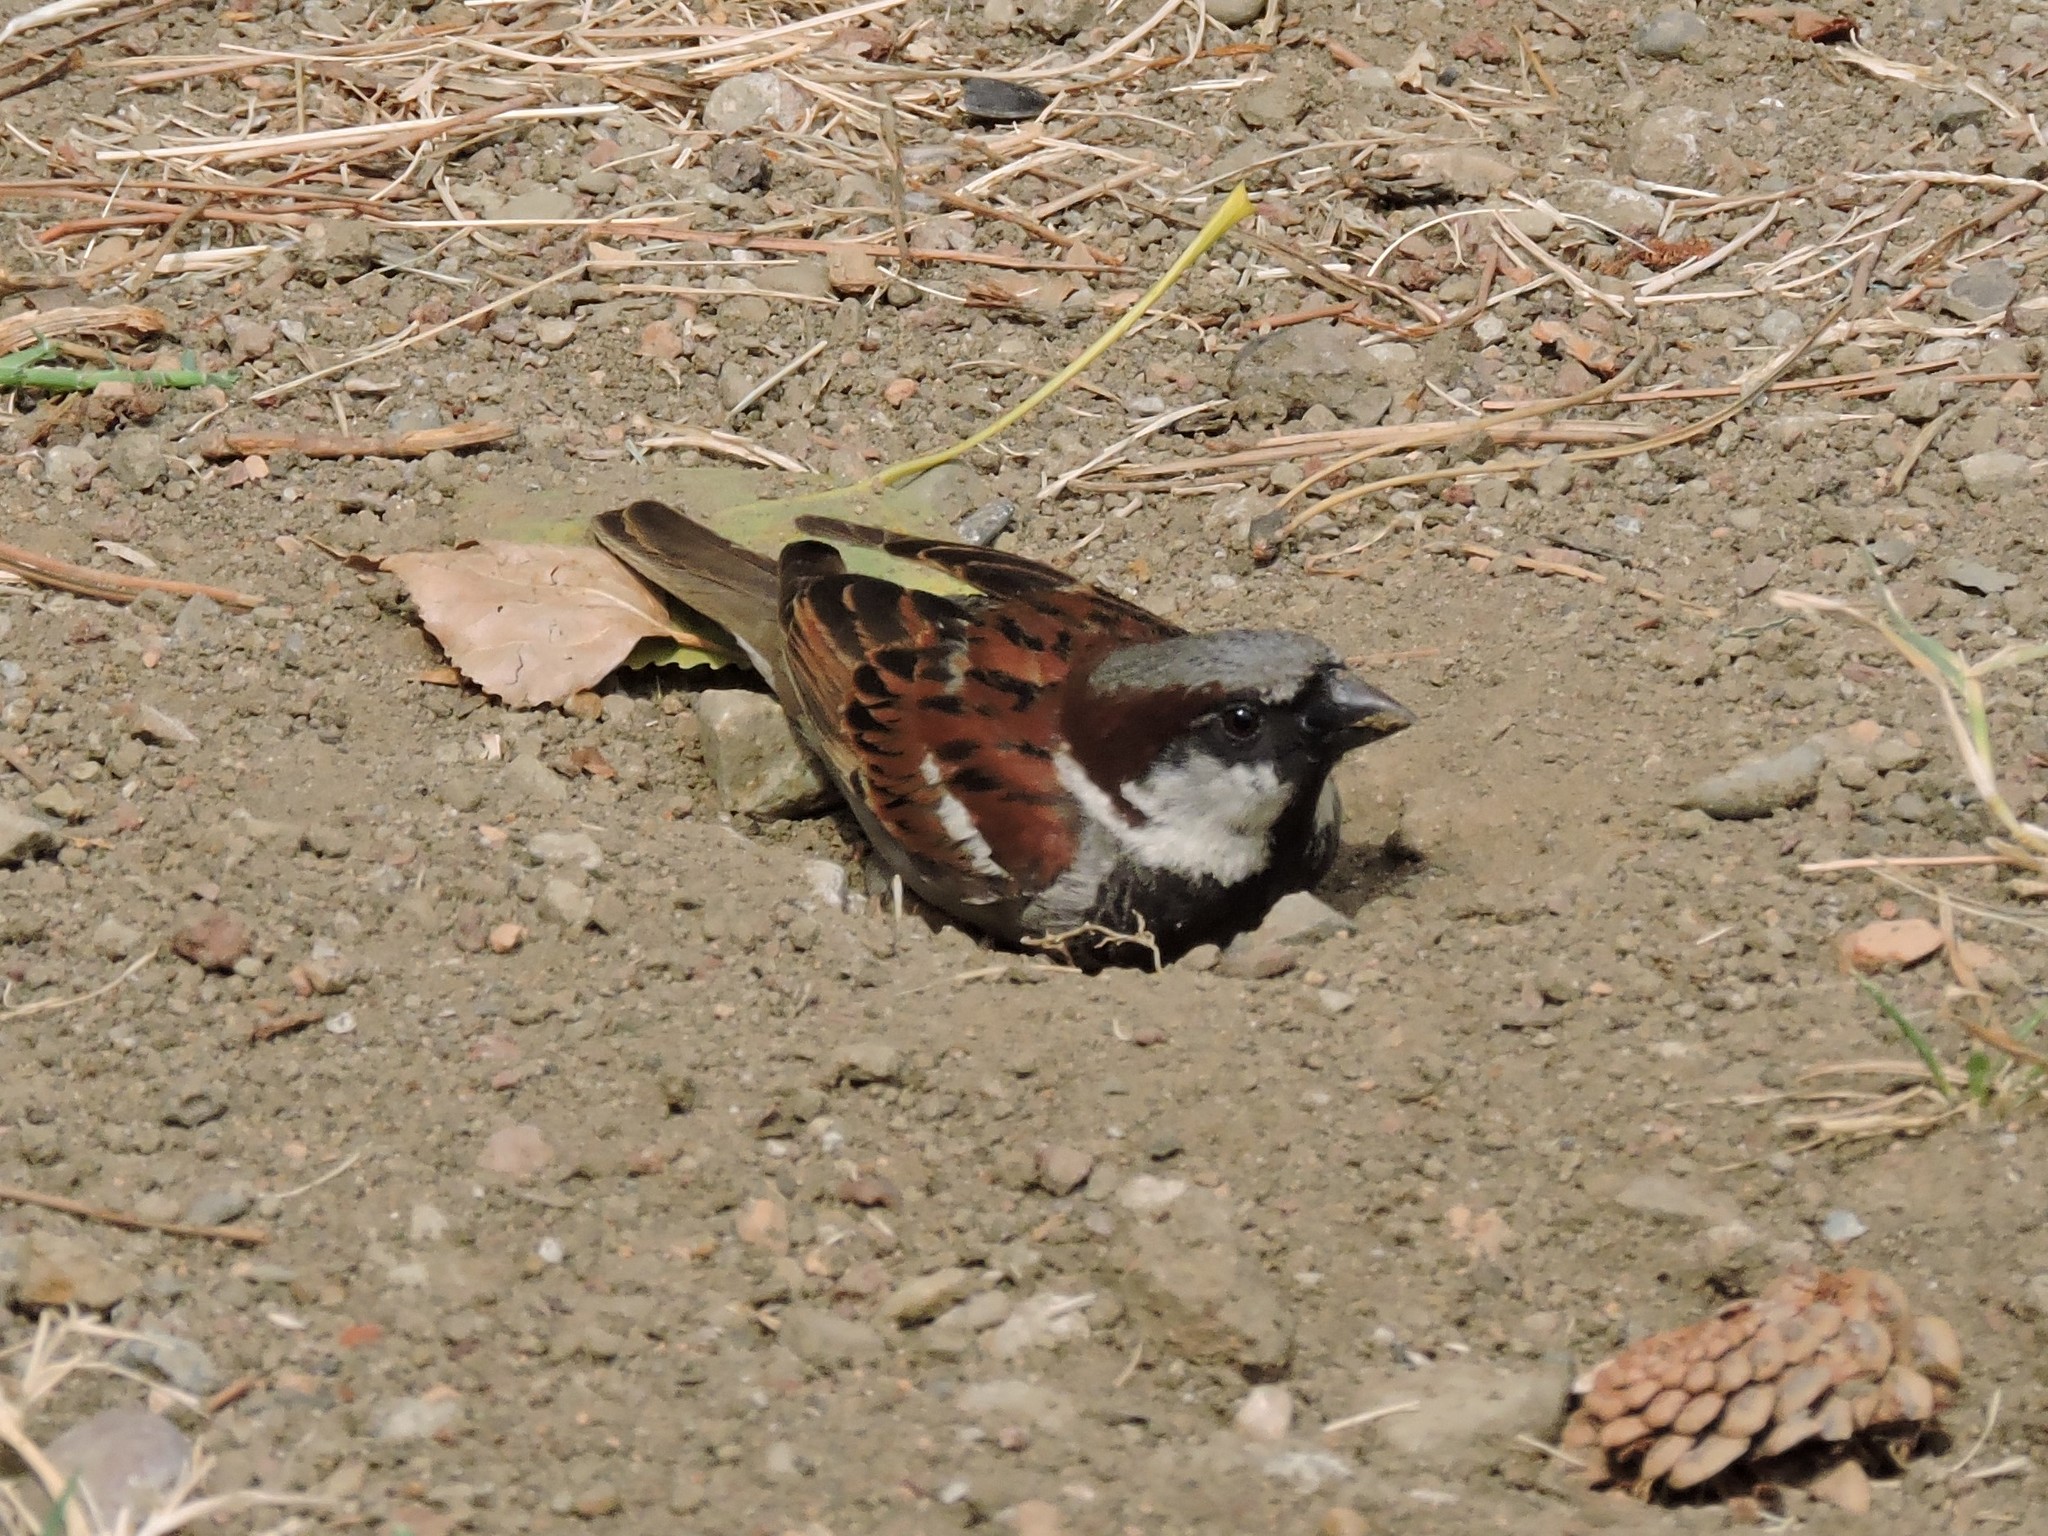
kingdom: Animalia
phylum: Chordata
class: Aves
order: Passeriformes
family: Passeridae
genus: Passer
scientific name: Passer domesticus
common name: House sparrow
